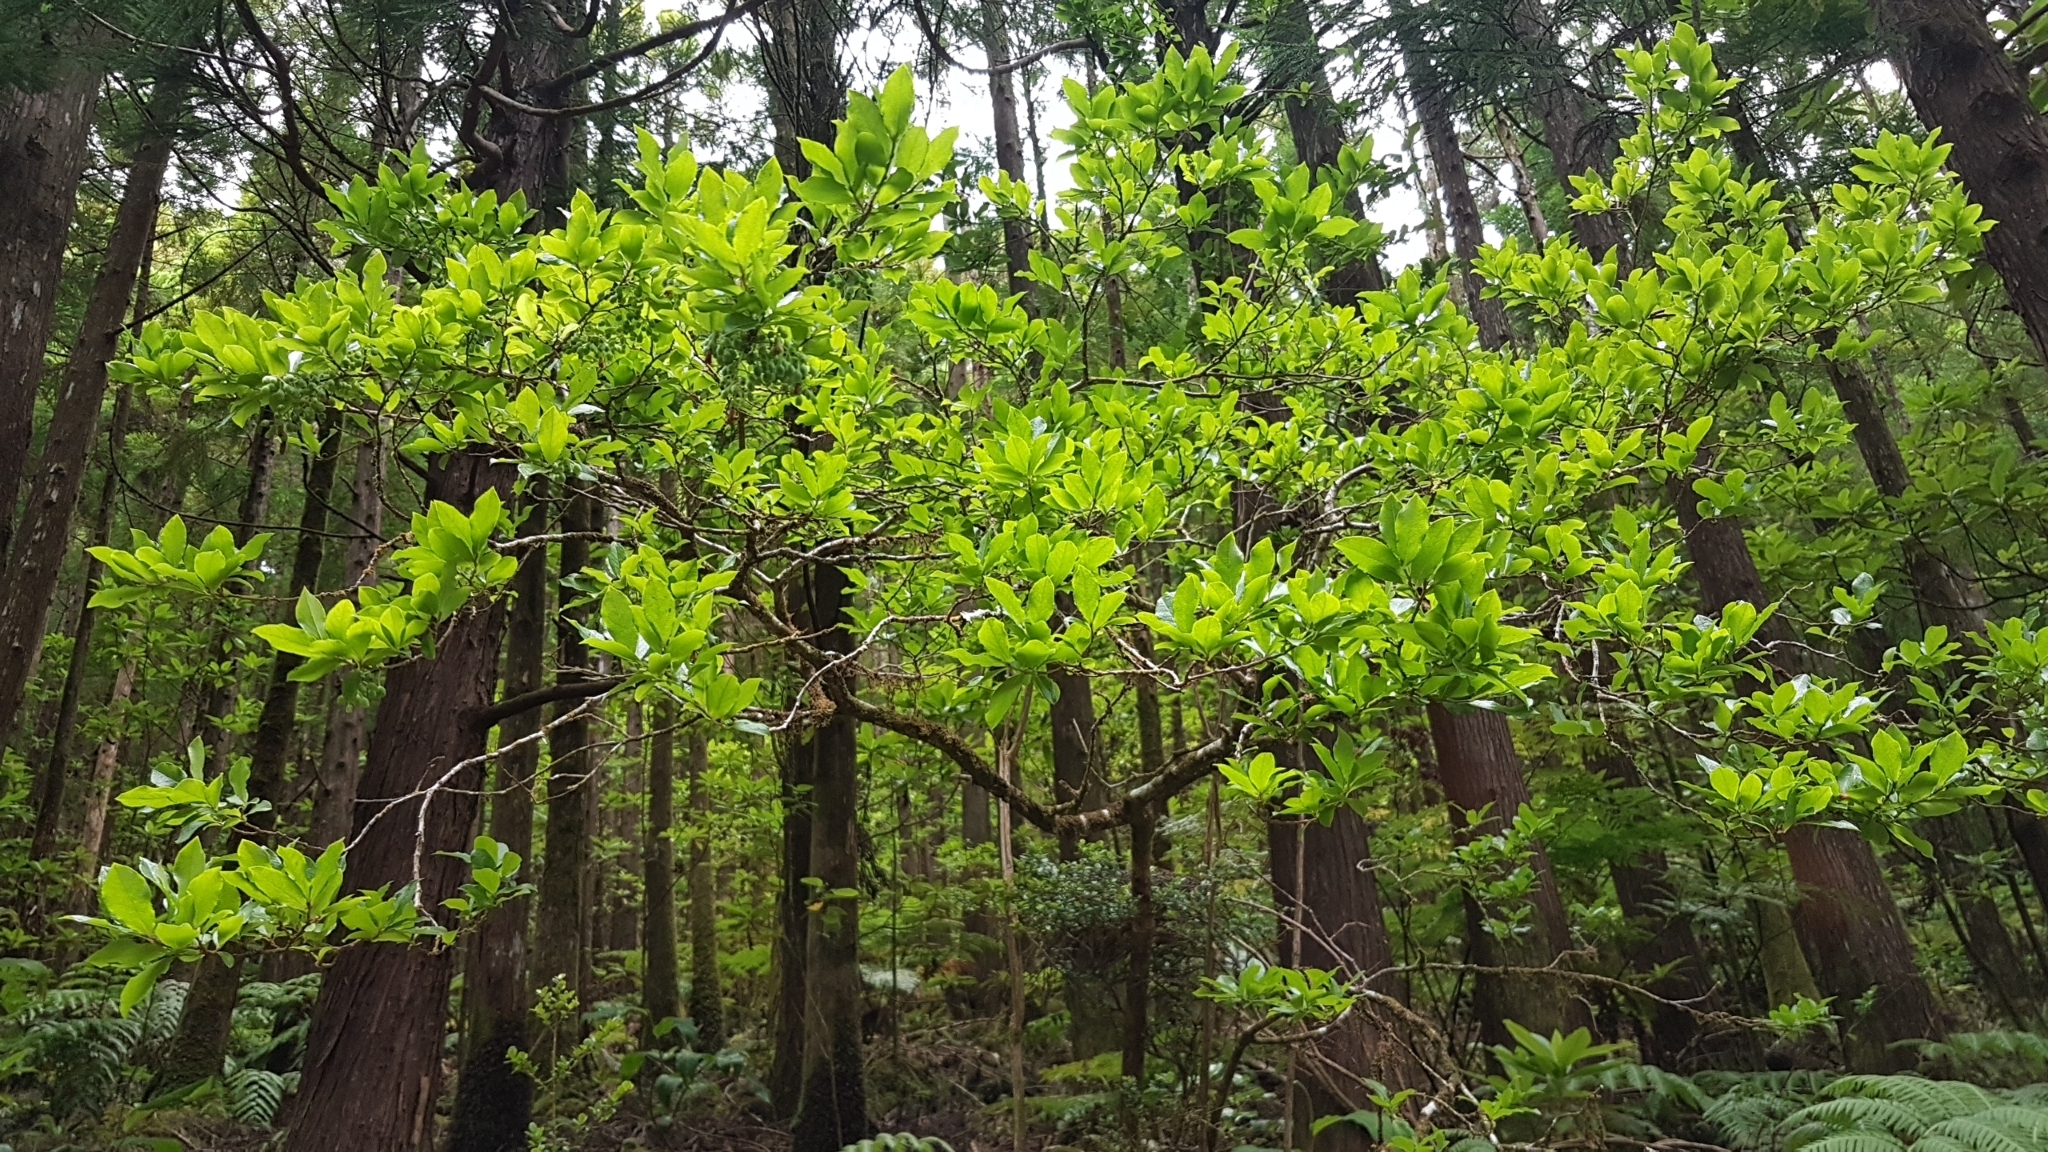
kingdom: Plantae
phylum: Tracheophyta
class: Magnoliopsida
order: Ericales
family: Ericaceae
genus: Vaccinium
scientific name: Vaccinium cylindraceum
